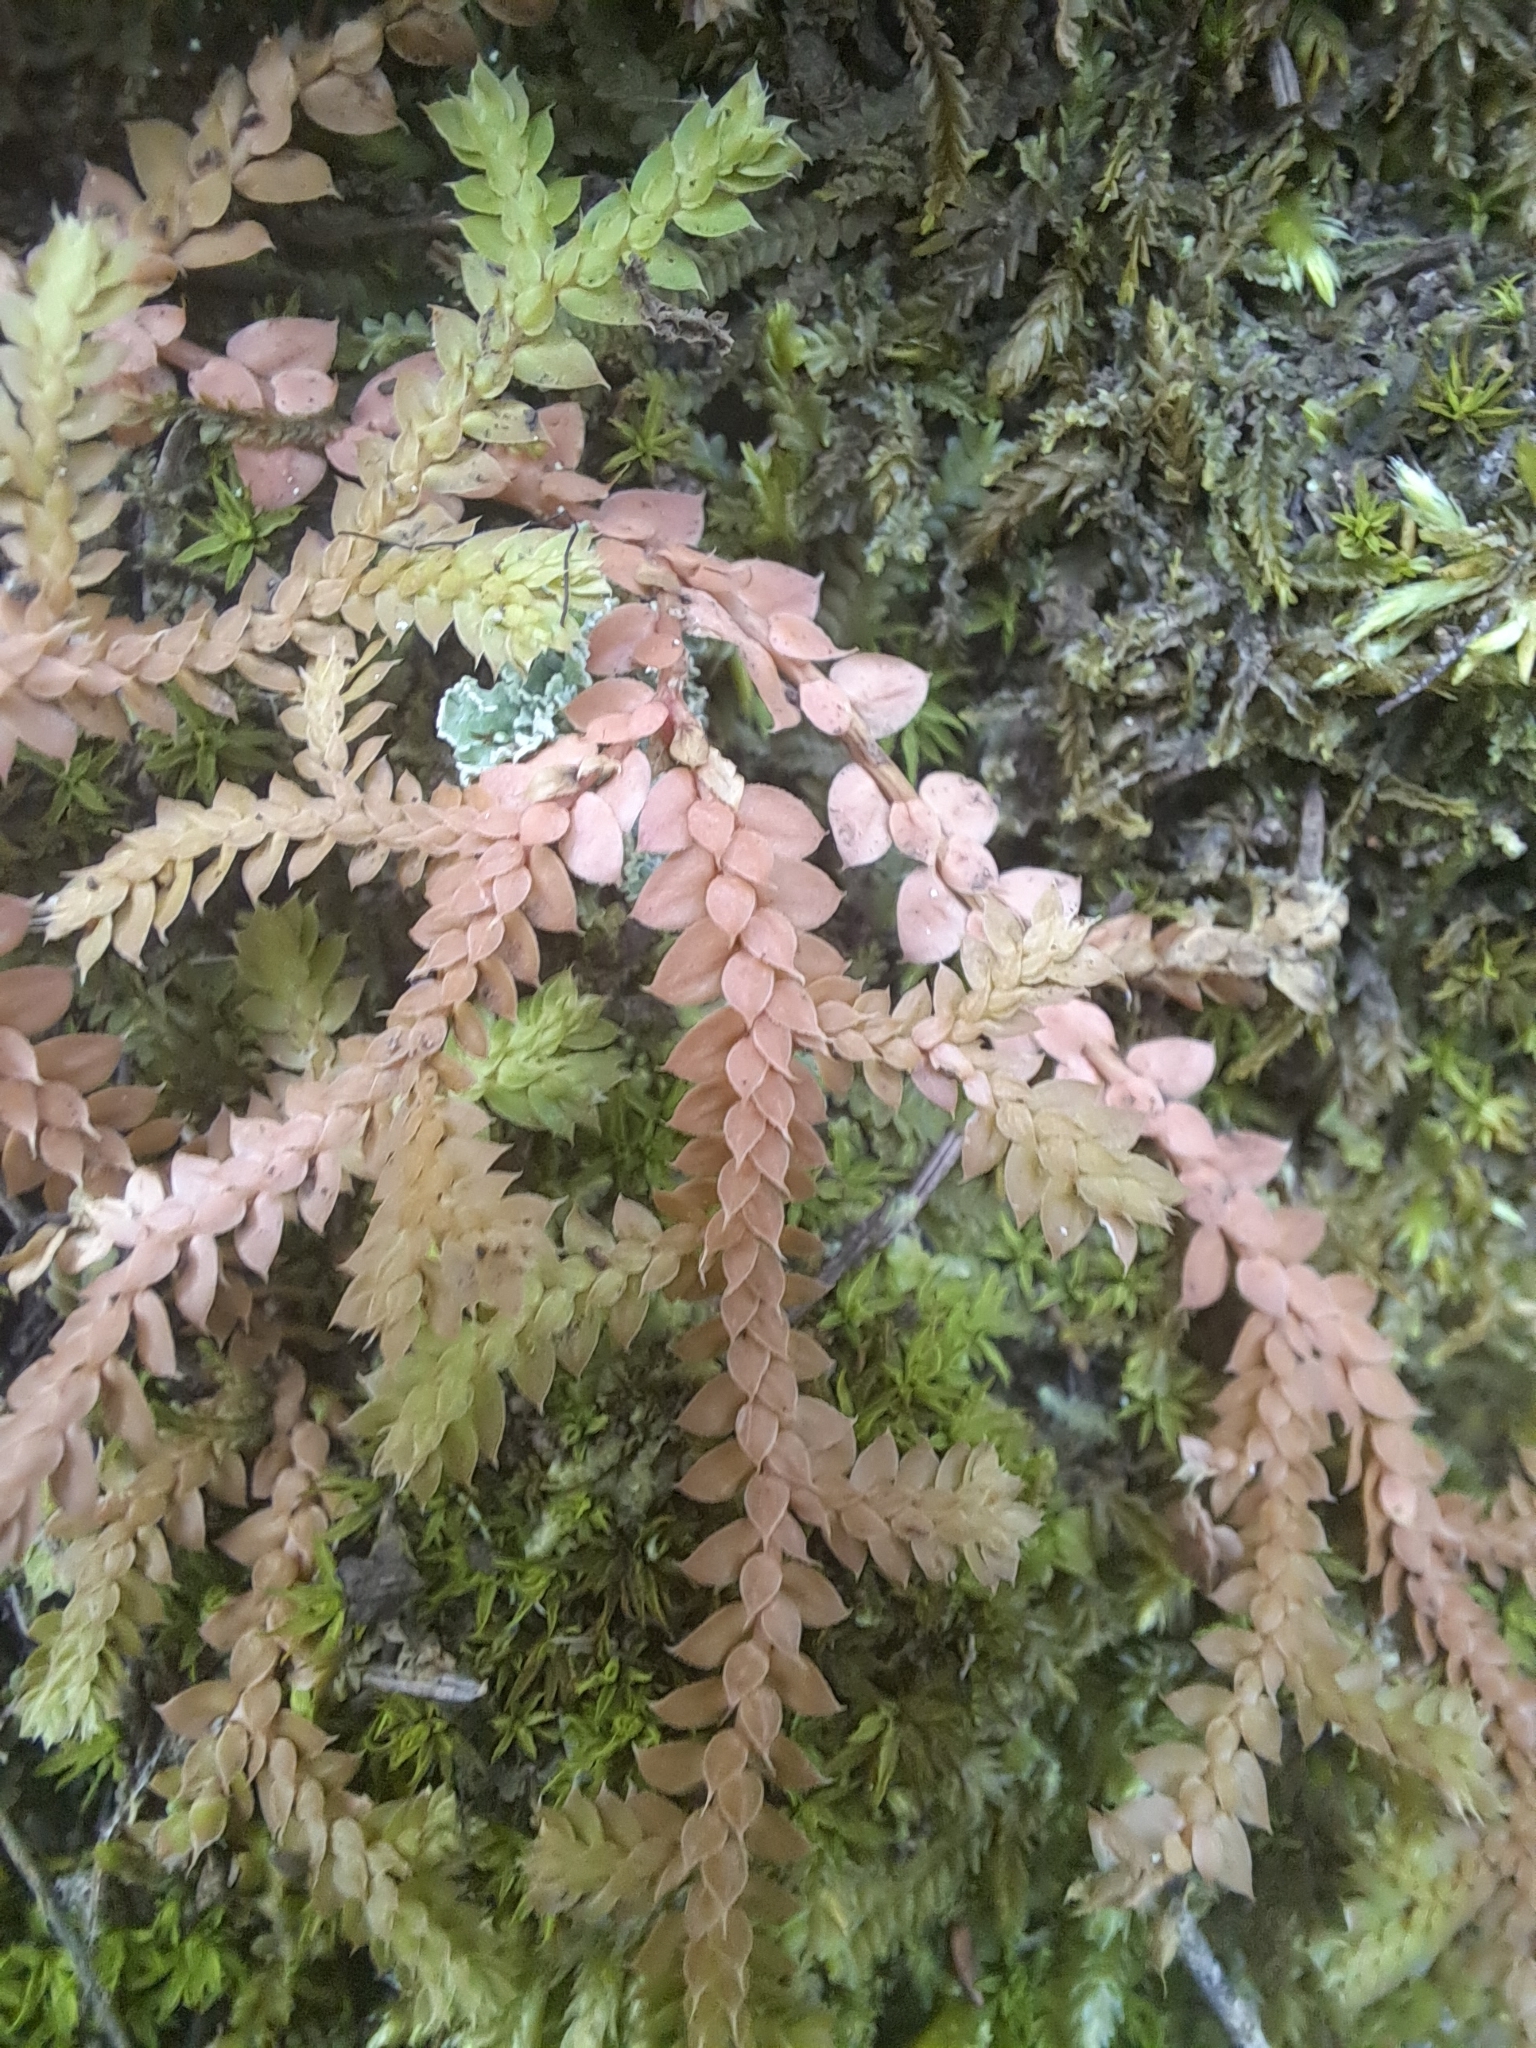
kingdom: Plantae
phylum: Tracheophyta
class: Lycopodiopsida
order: Selaginellales
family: Selaginellaceae
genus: Selaginella
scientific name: Selaginella denticulata
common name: Toothed-leaved clubmoss
